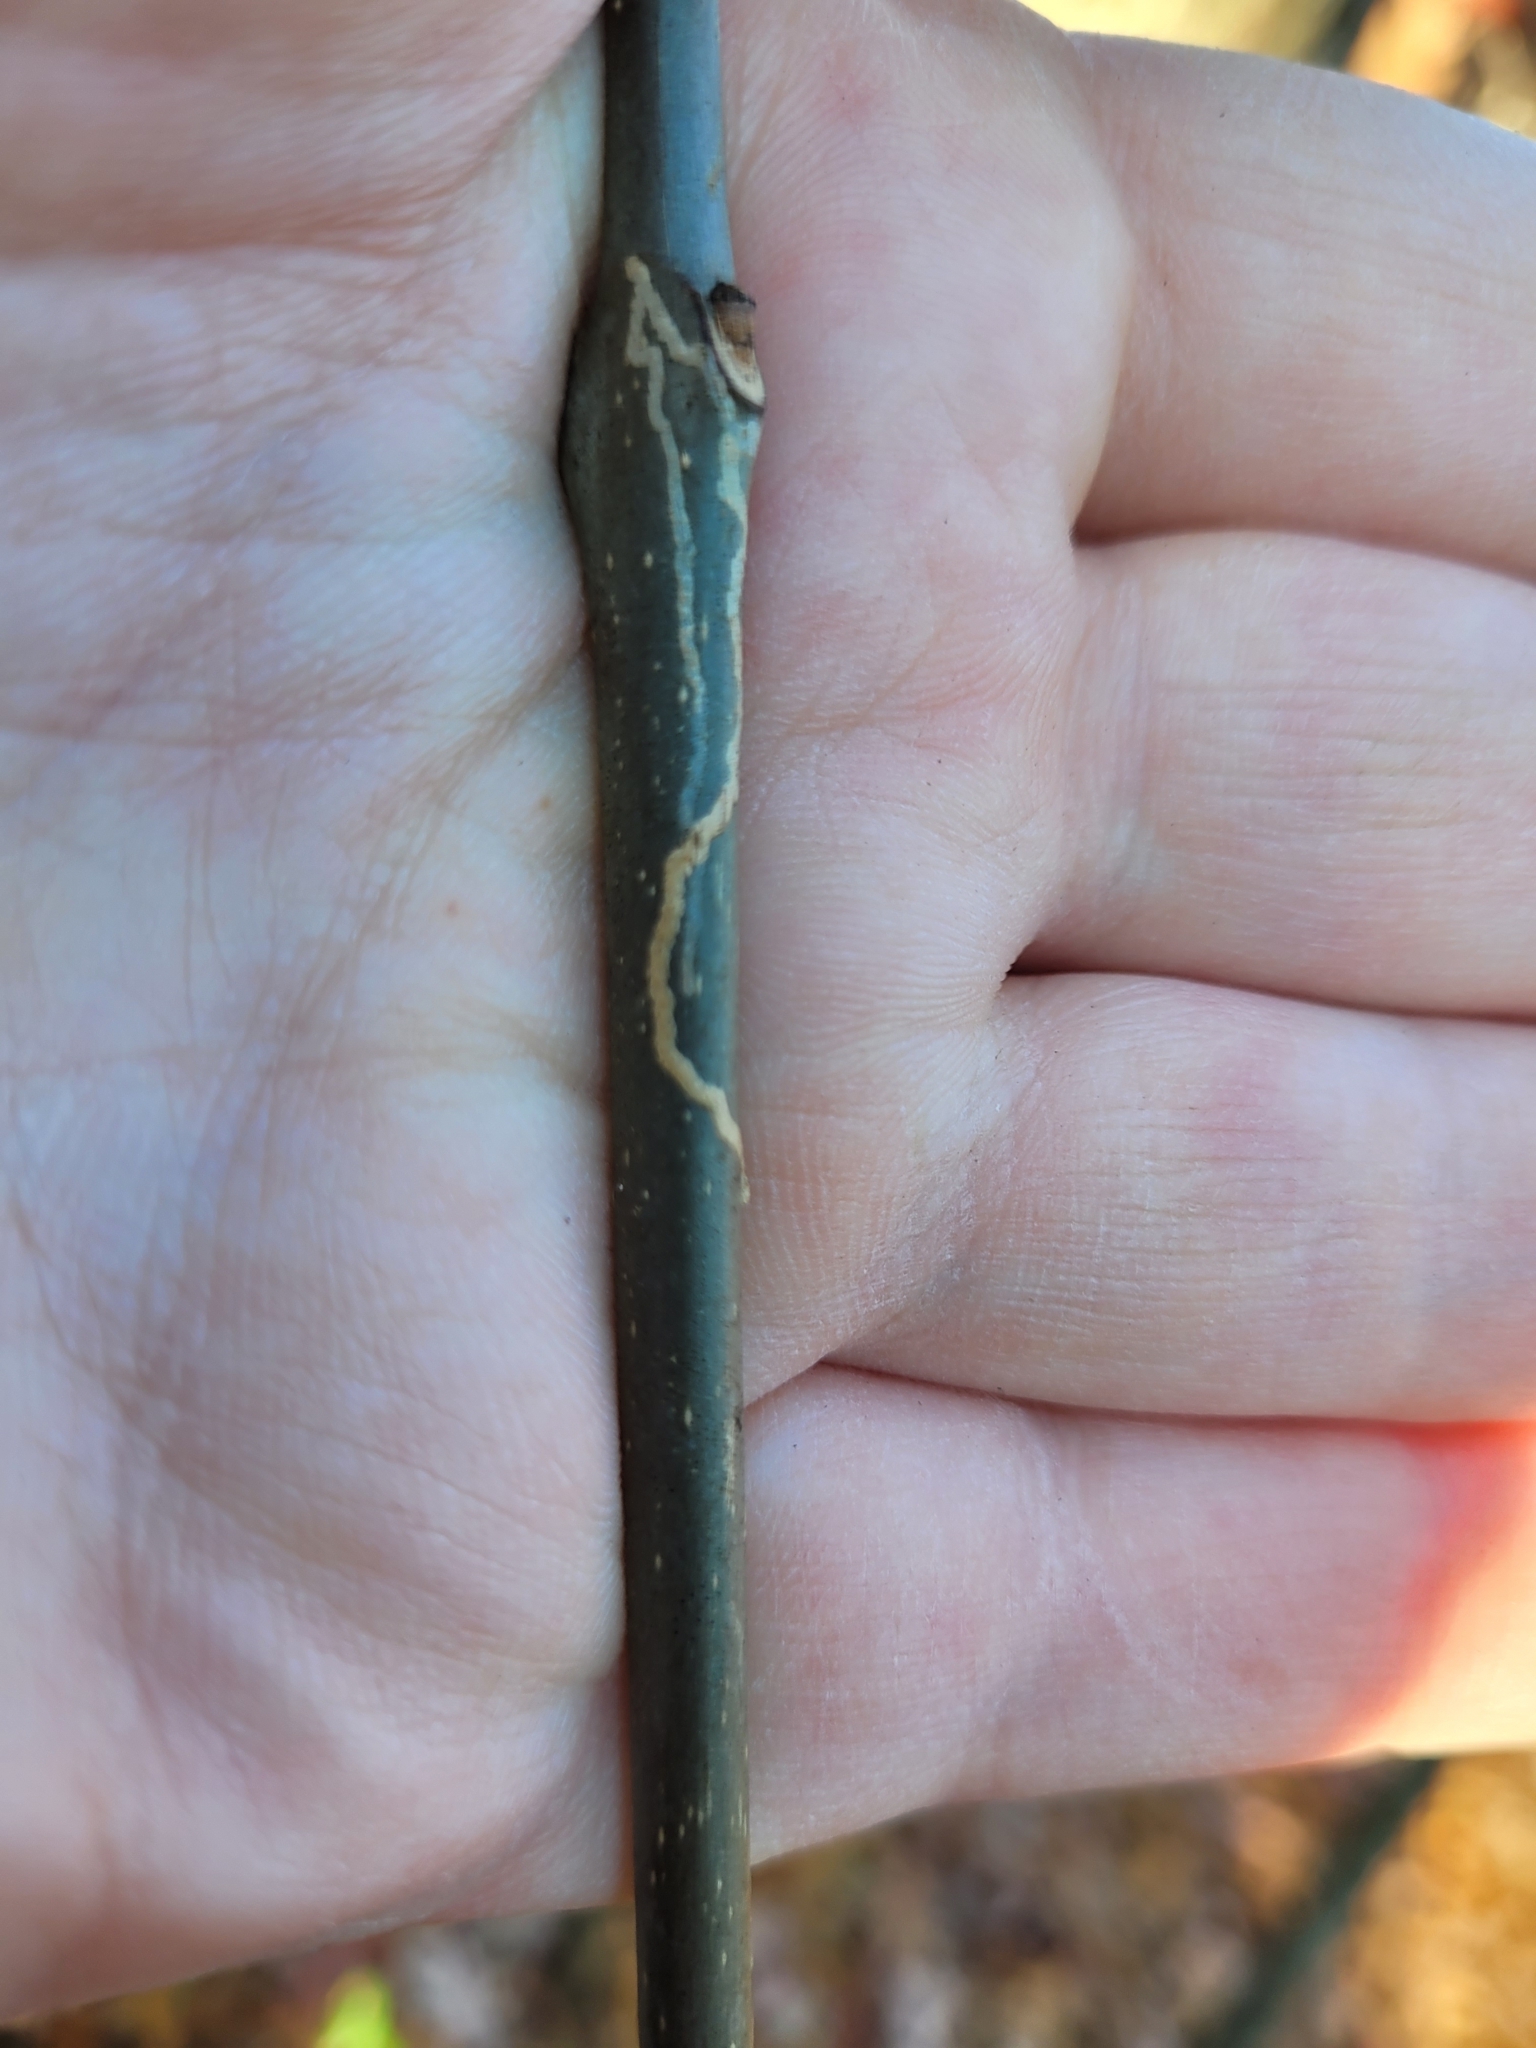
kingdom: Animalia
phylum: Arthropoda
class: Insecta
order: Lepidoptera
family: Gracillariidae
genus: Marmara
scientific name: Marmara fraxinicola
